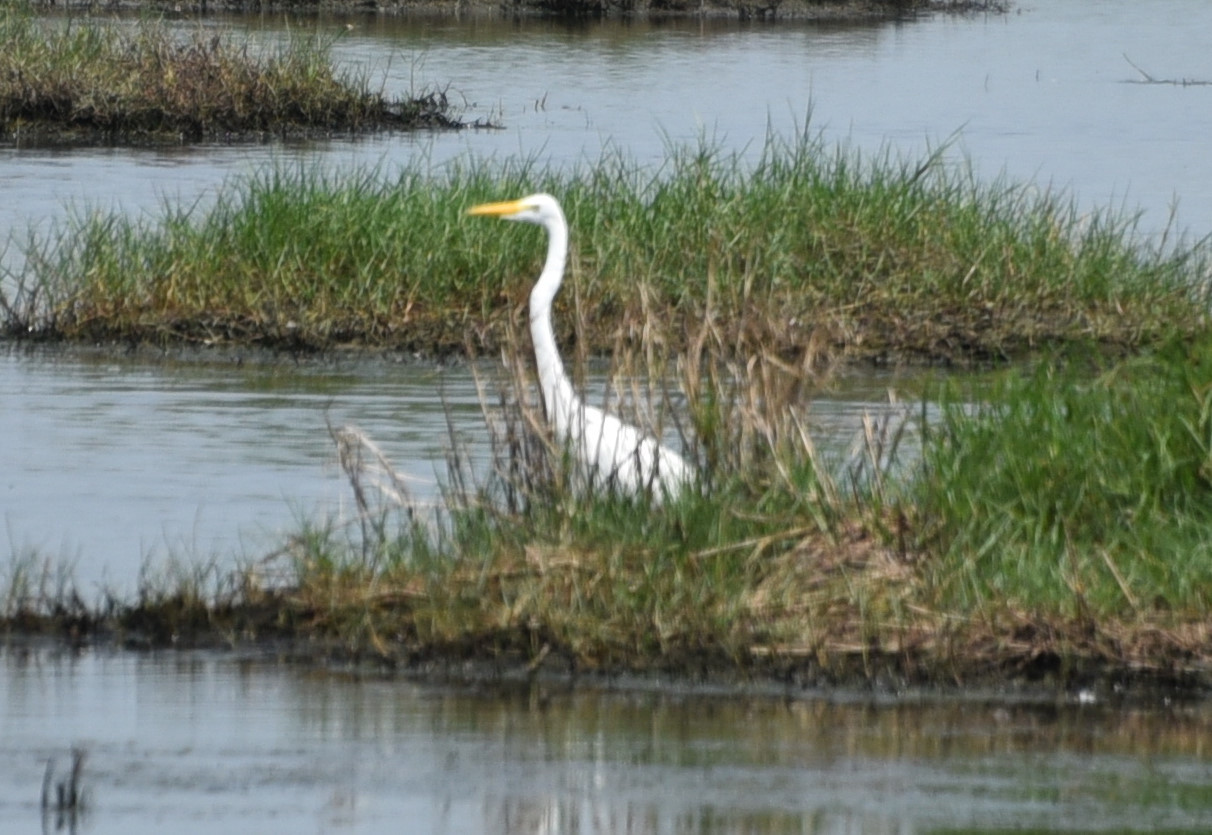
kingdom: Animalia
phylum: Chordata
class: Aves
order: Pelecaniformes
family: Ardeidae
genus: Ardea
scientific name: Ardea alba
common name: Great egret
